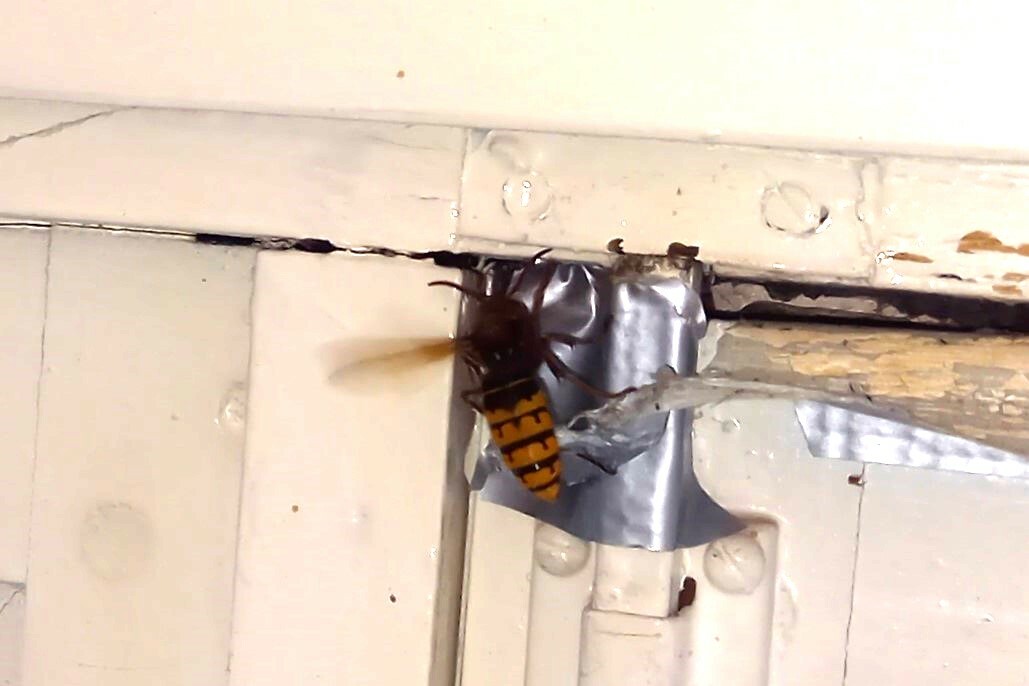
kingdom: Animalia
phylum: Arthropoda
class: Insecta
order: Hymenoptera
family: Vespidae
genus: Vespa
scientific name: Vespa crabro
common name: Hornet
